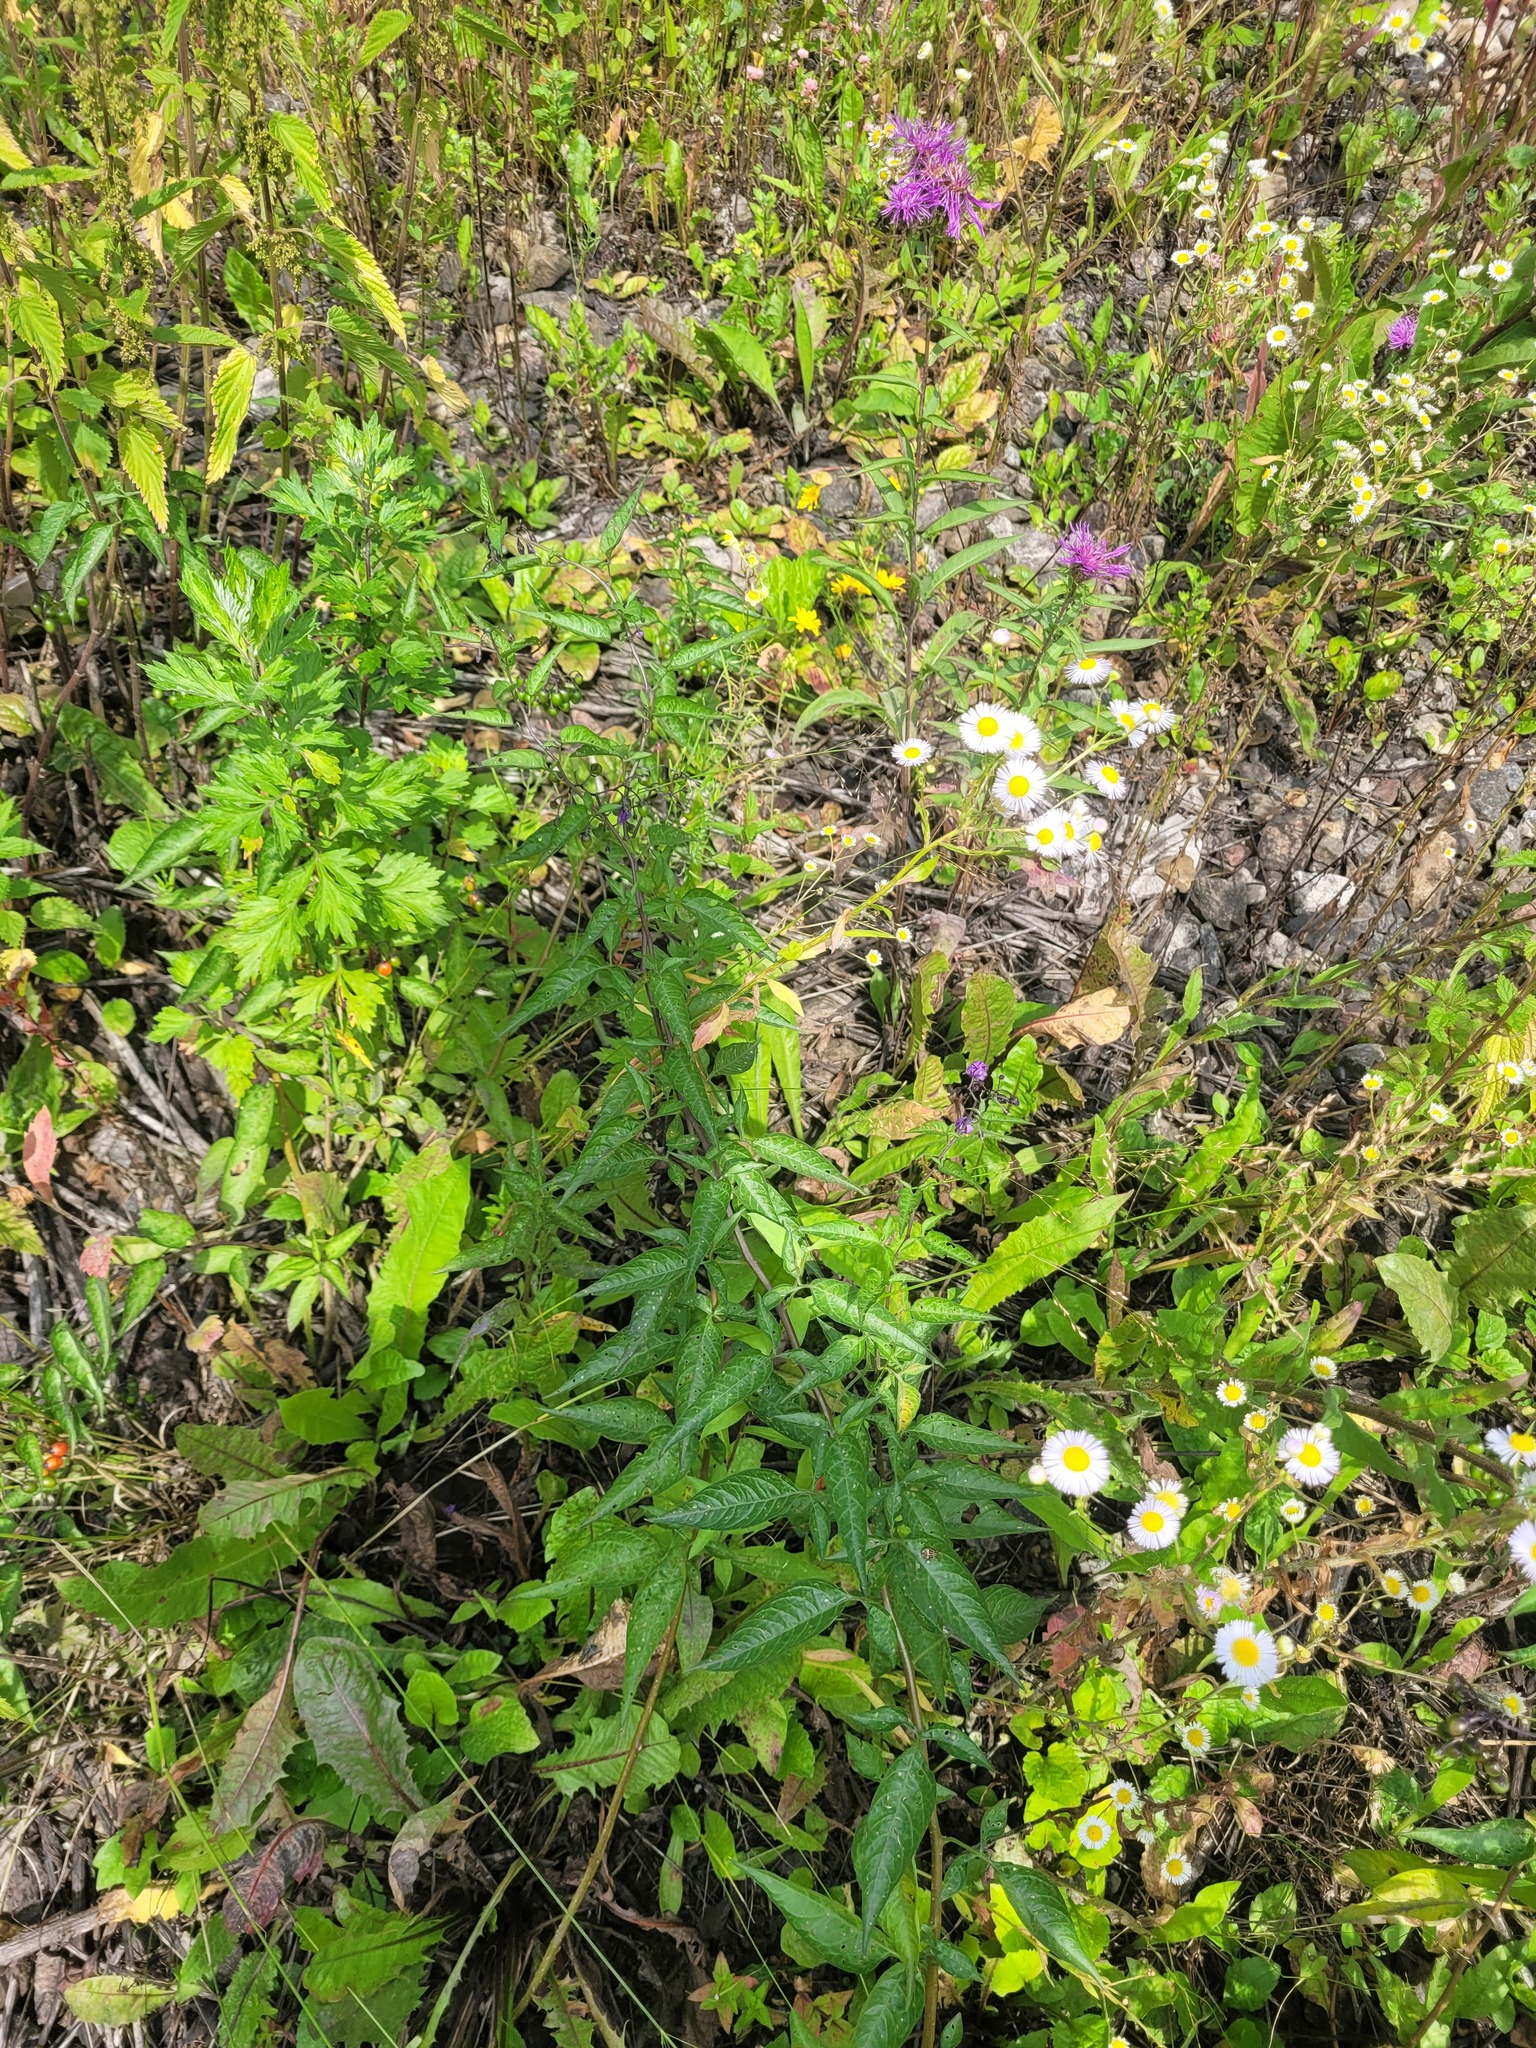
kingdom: Plantae
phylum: Tracheophyta
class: Magnoliopsida
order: Solanales
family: Solanaceae
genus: Solanum
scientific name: Solanum dulcamara
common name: Climbing nightshade
